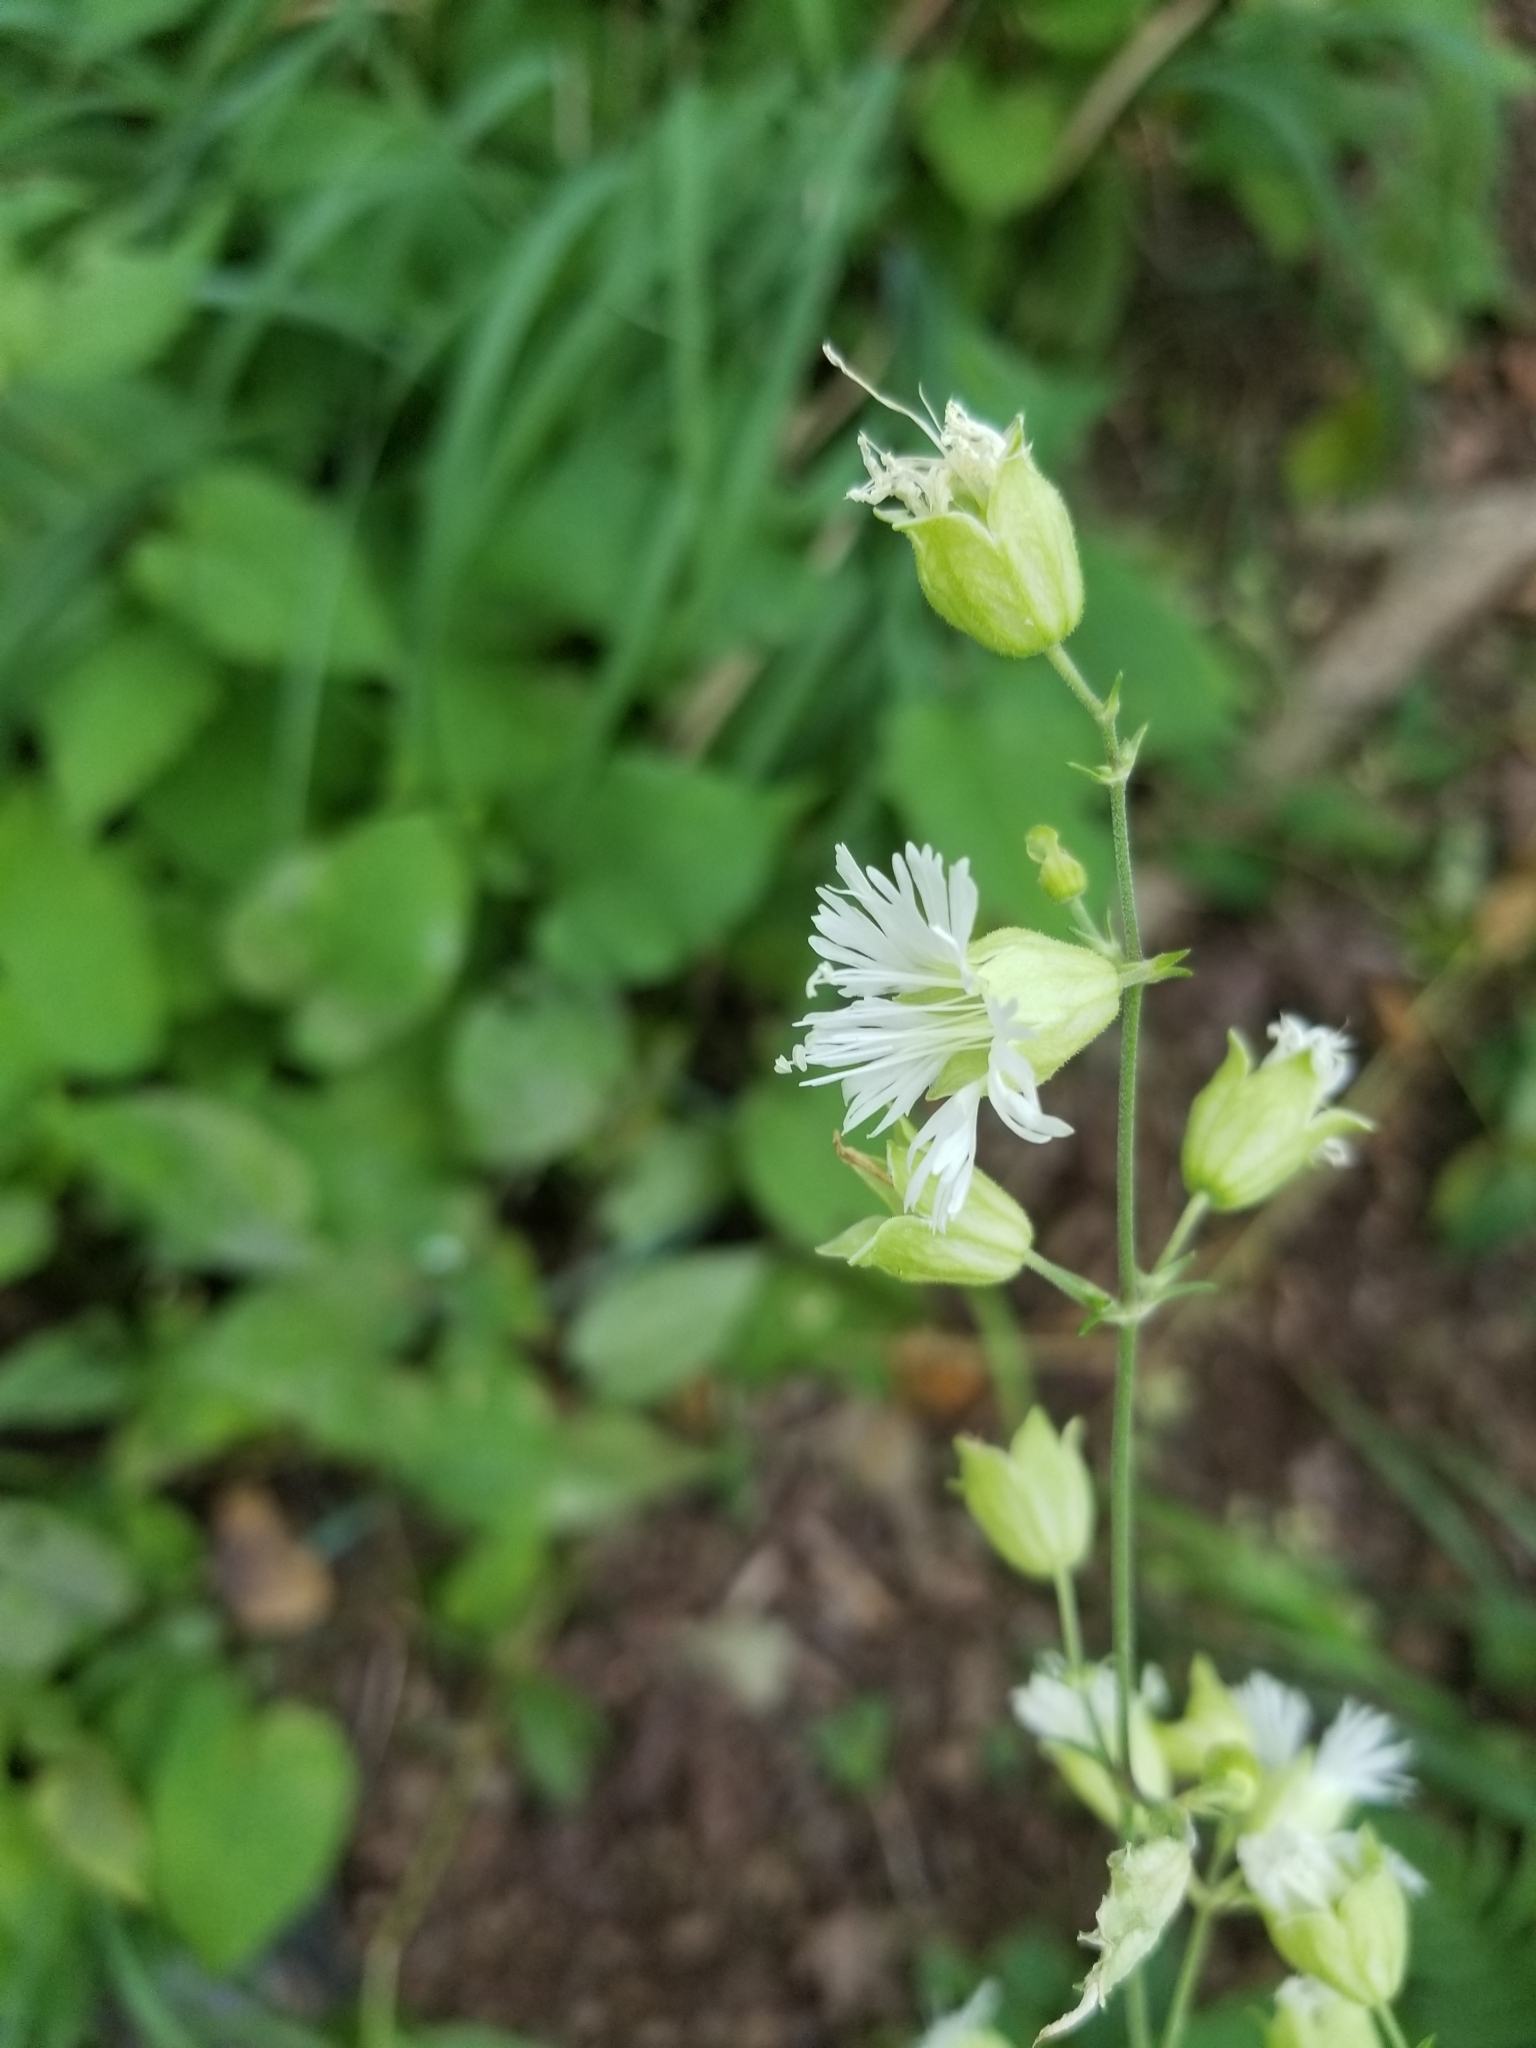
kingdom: Plantae
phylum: Tracheophyta
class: Magnoliopsida
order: Caryophyllales
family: Caryophyllaceae
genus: Silene
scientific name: Silene stellata
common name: Starry campion
